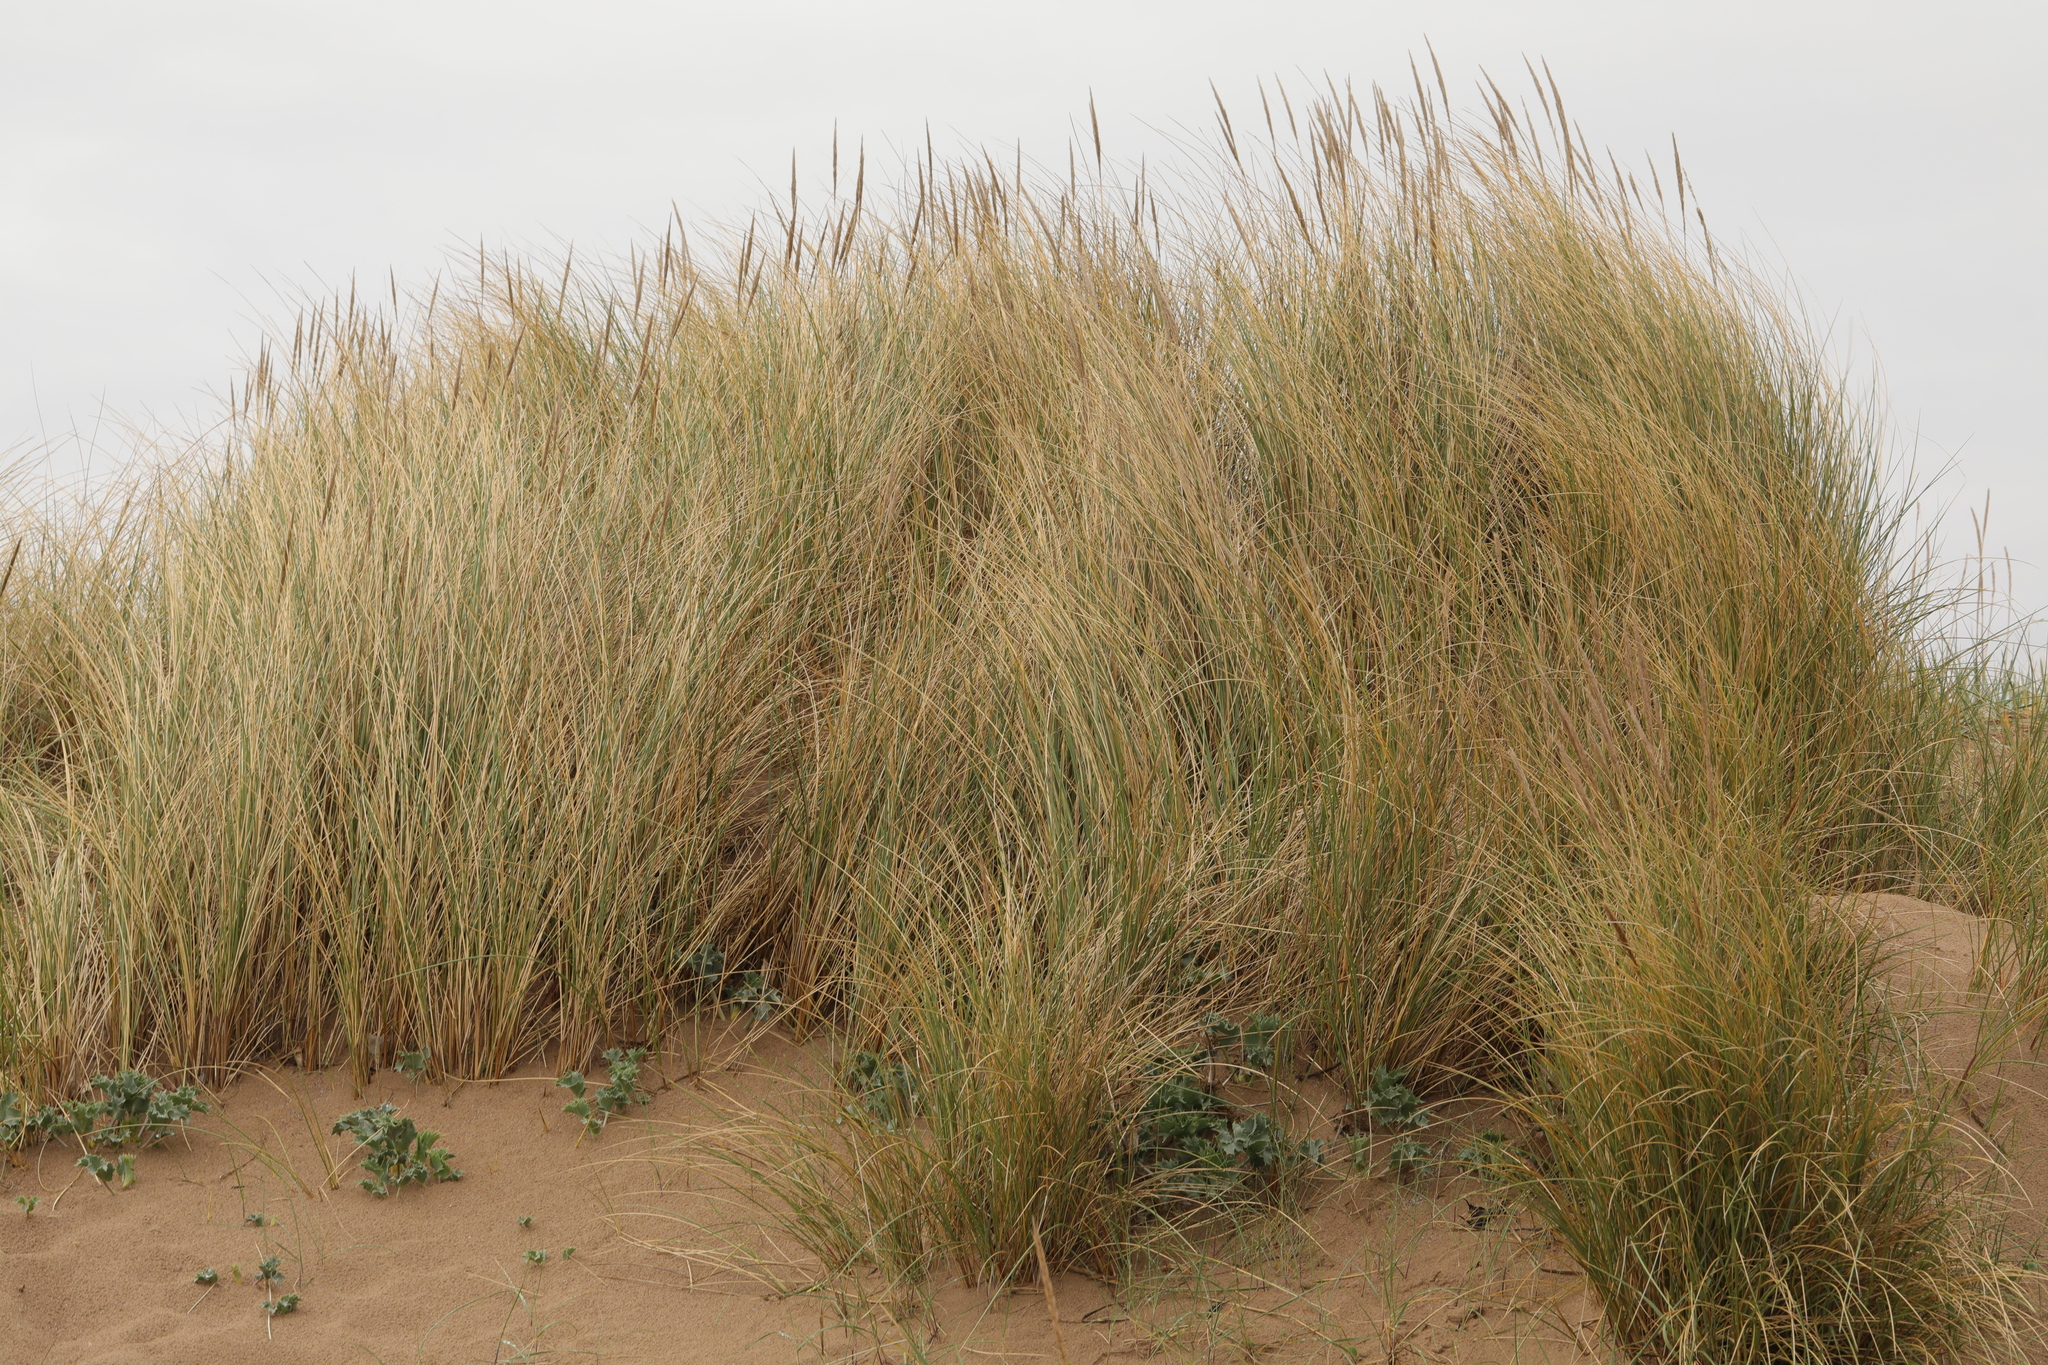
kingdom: Plantae
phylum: Tracheophyta
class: Liliopsida
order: Poales
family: Poaceae
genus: Calamagrostis
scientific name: Calamagrostis arenaria
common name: European beachgrass
